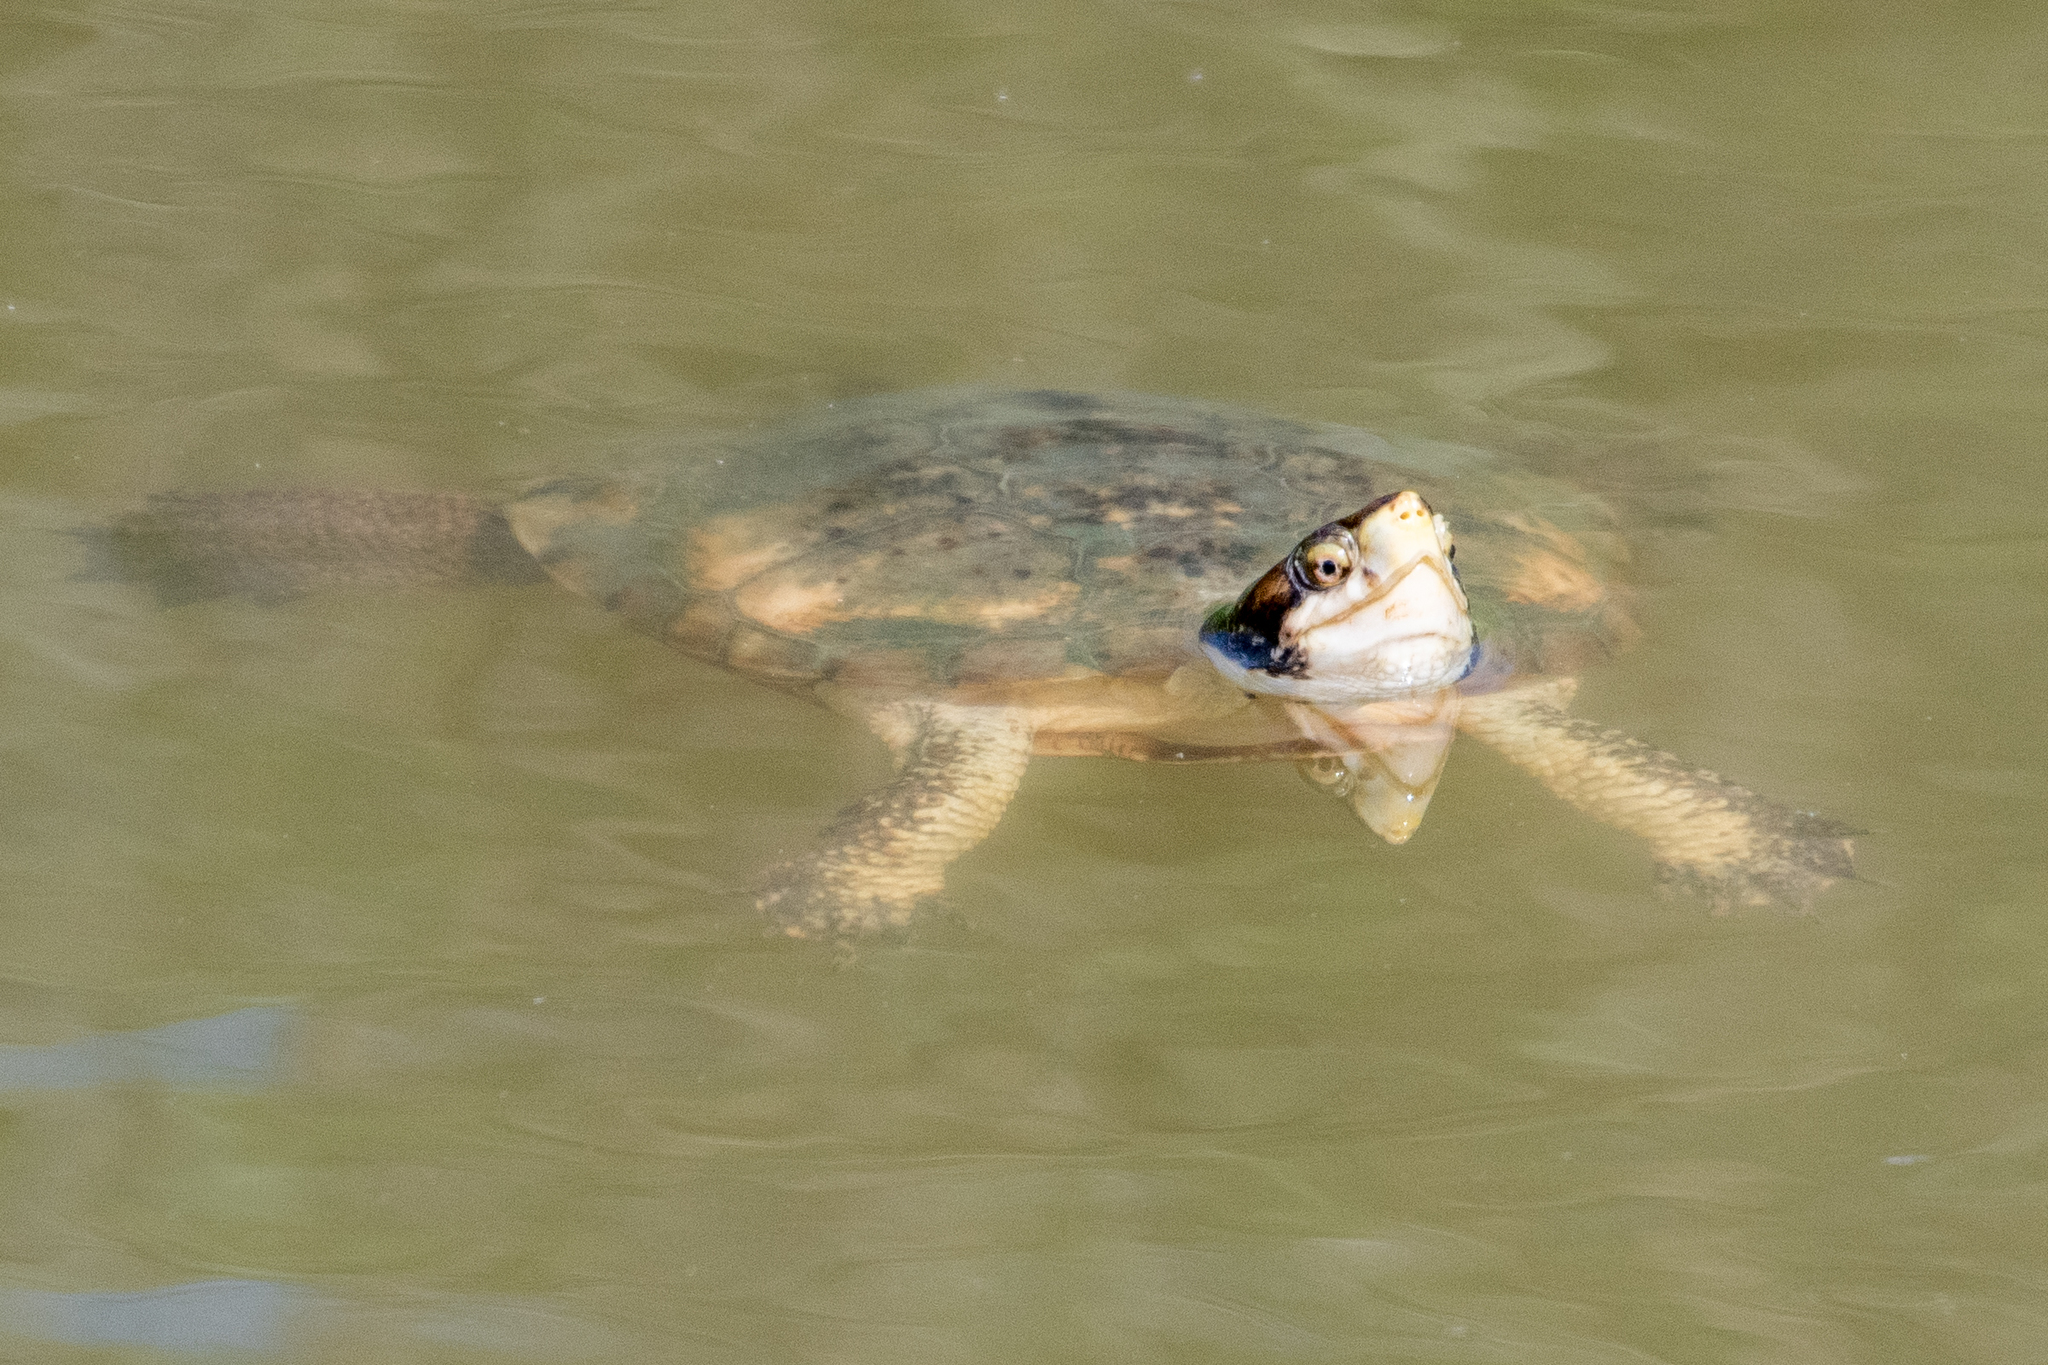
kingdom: Animalia
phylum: Chordata
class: Testudines
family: Emydidae
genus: Actinemys
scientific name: Actinemys marmorata
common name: Western pond turtle
